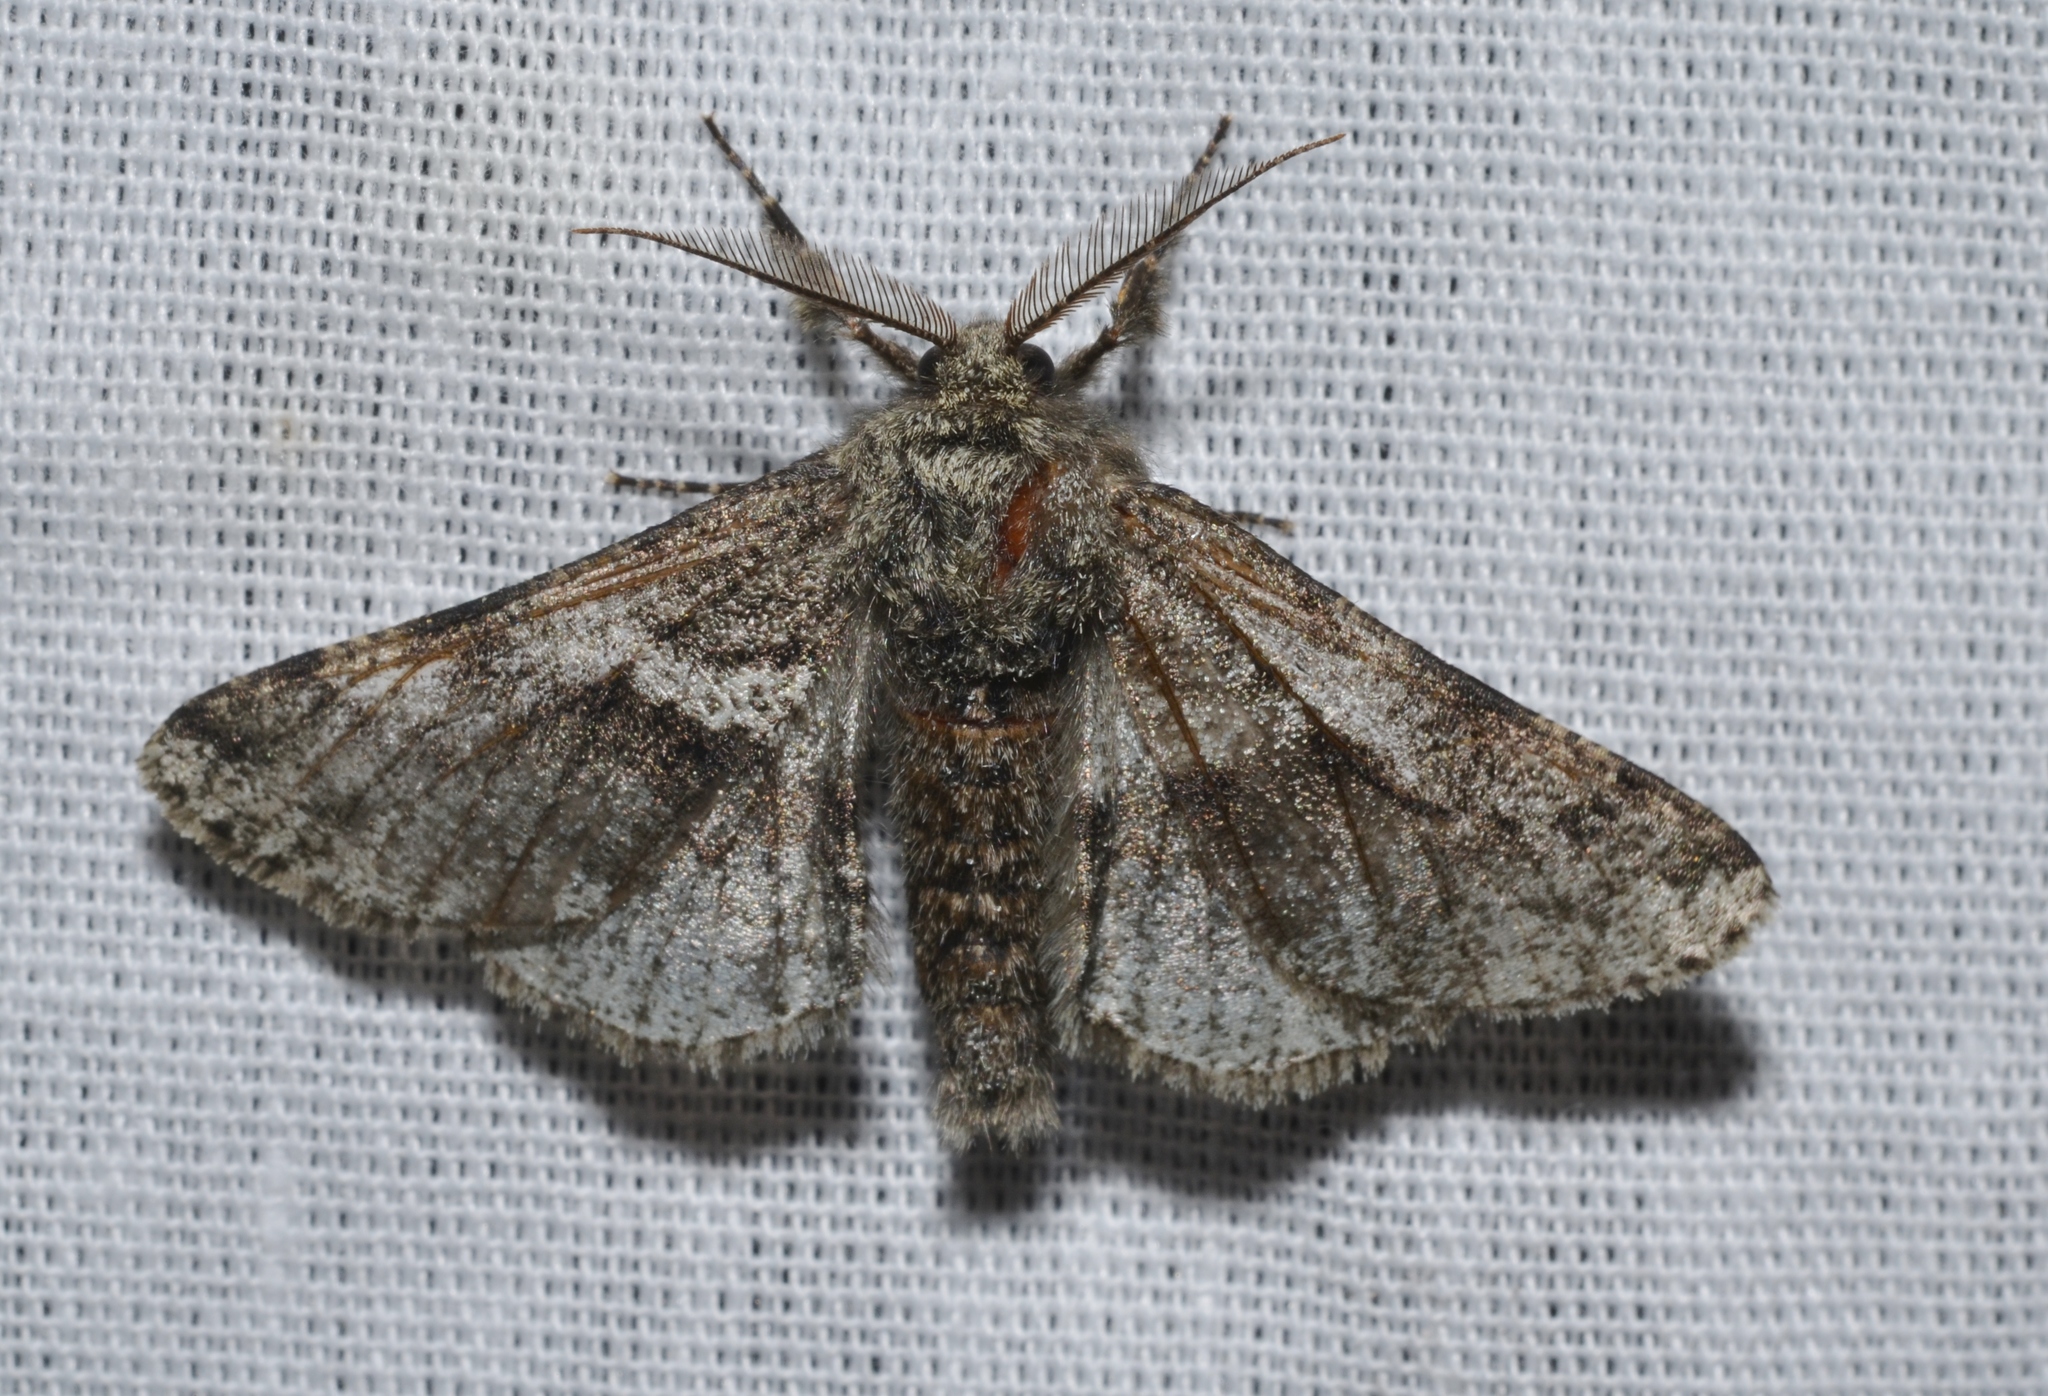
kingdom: Animalia
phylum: Arthropoda
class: Insecta
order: Lepidoptera
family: Geometridae
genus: Lycia
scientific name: Lycia ypsilon
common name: Wooly gray
